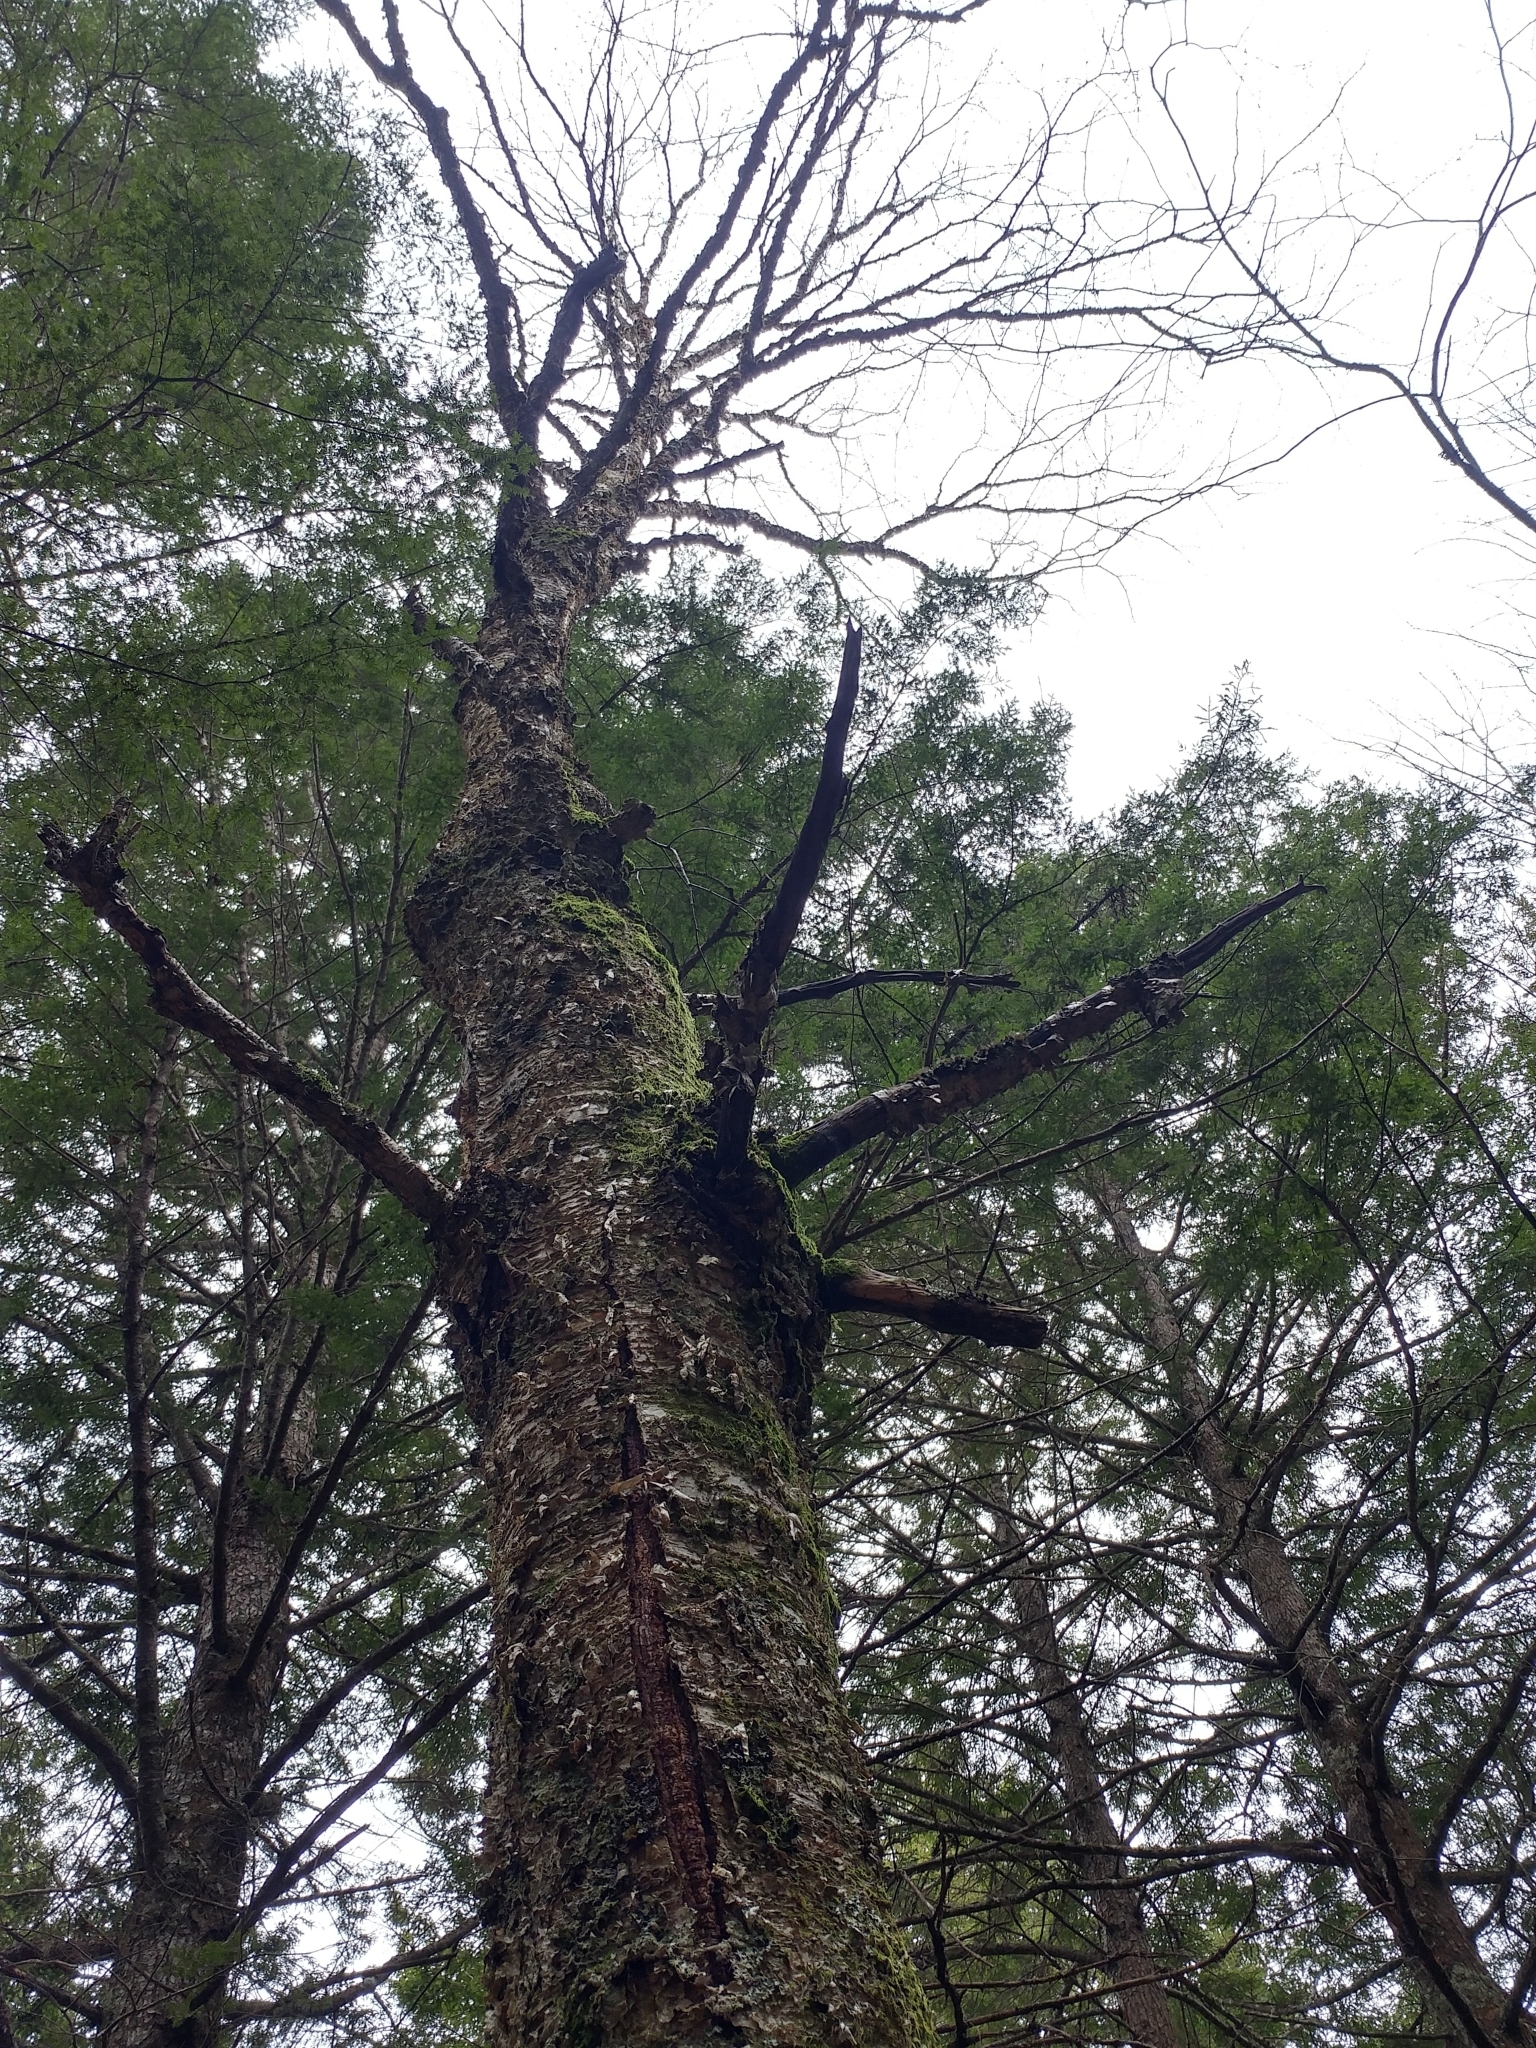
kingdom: Plantae
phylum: Tracheophyta
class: Magnoliopsida
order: Fagales
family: Betulaceae
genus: Betula
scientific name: Betula alleghaniensis
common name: Yellow birch
